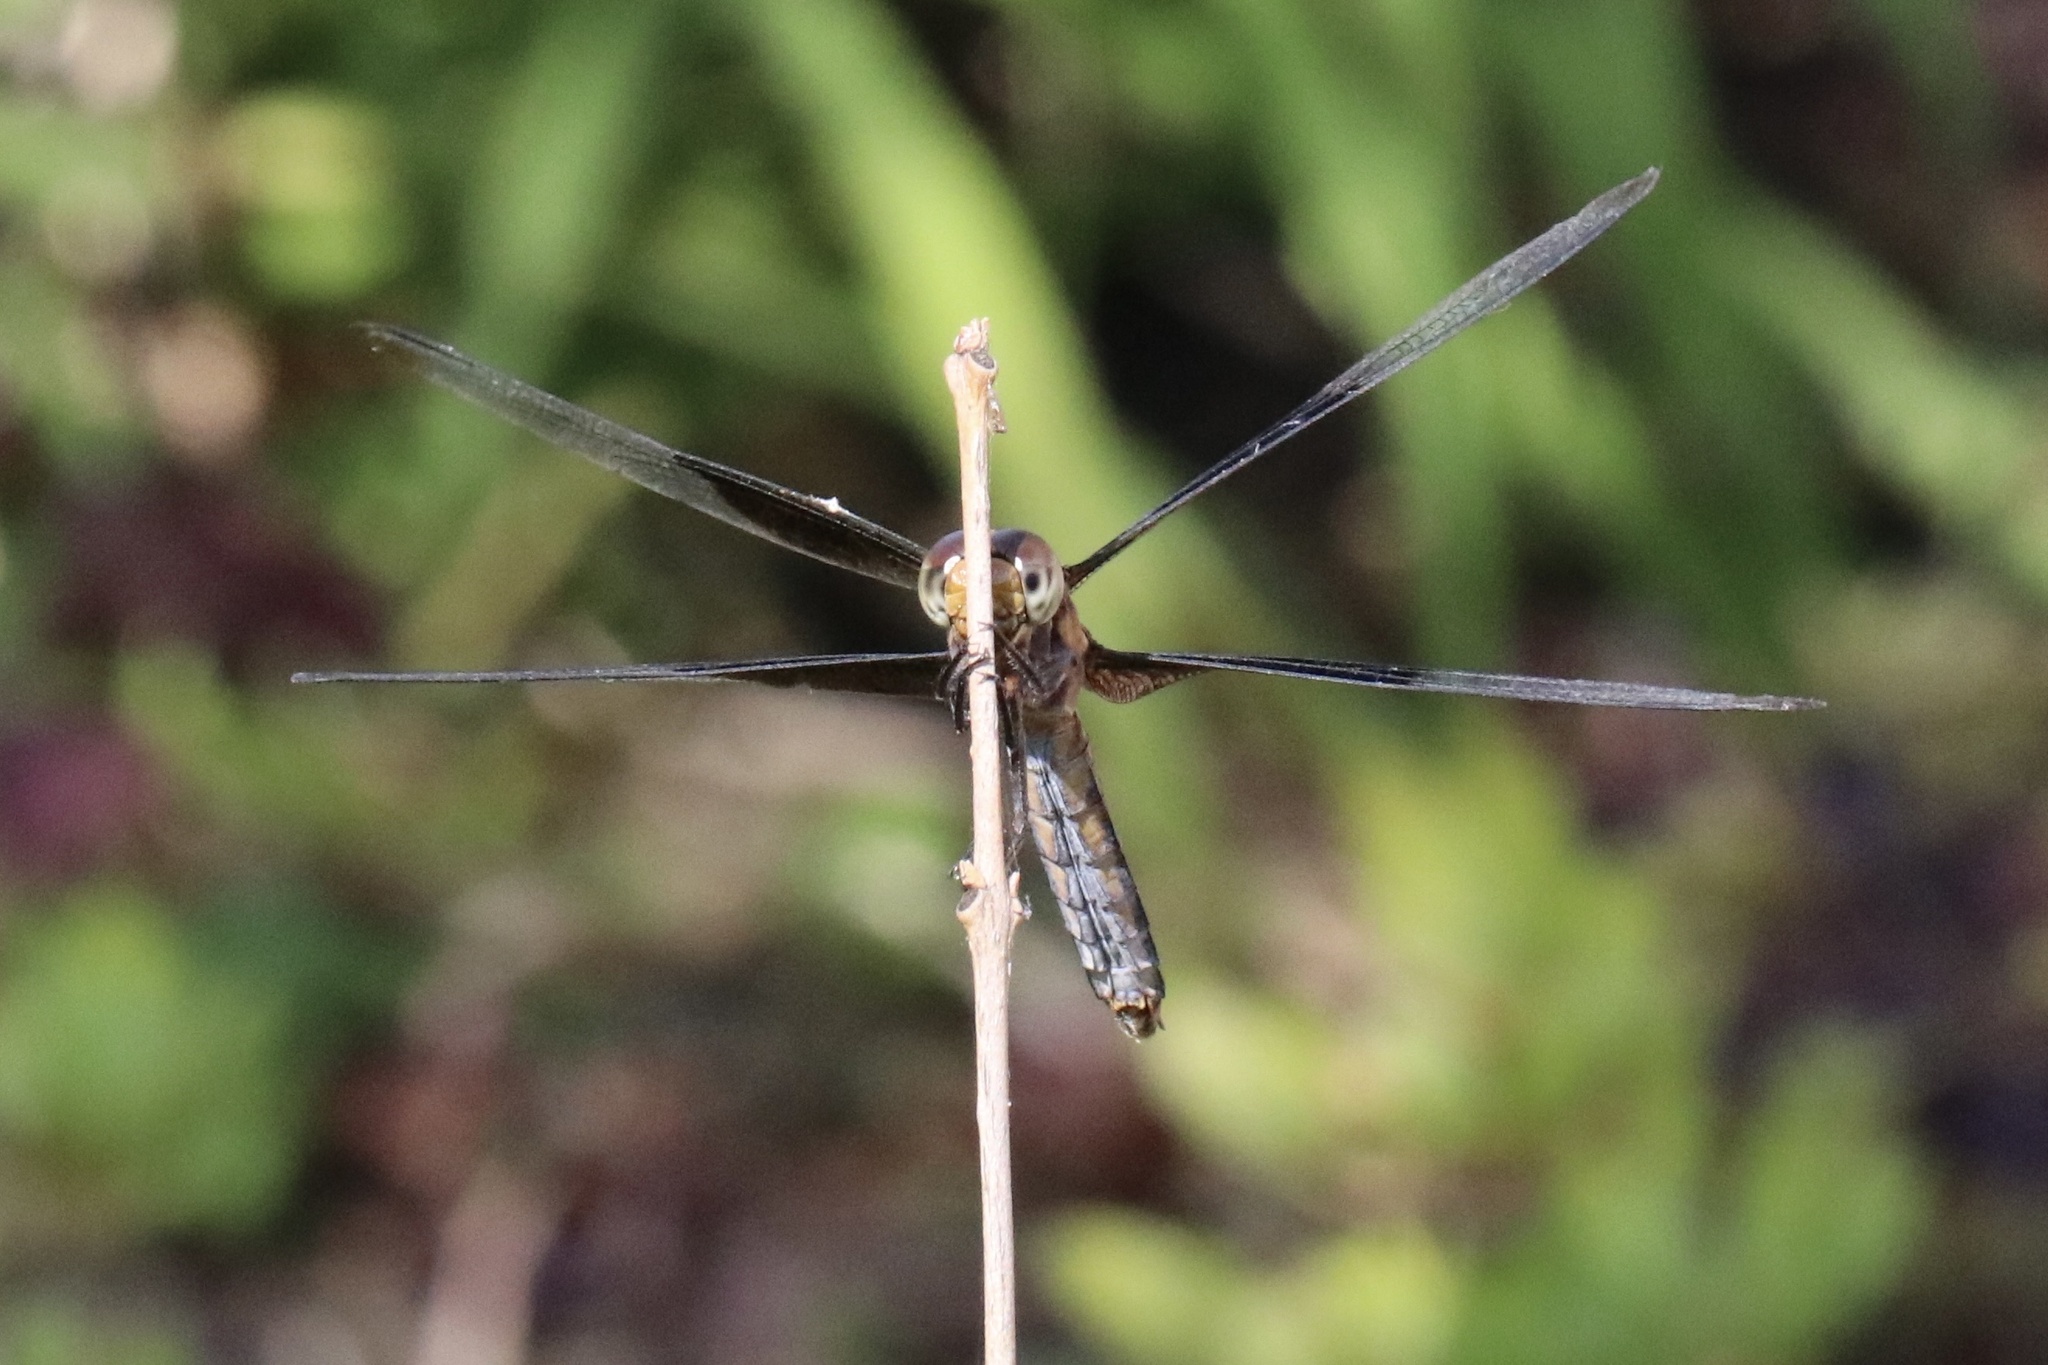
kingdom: Animalia
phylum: Arthropoda
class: Insecta
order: Odonata
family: Libellulidae
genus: Libellula
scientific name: Libellula luctuosa
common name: Widow skimmer
